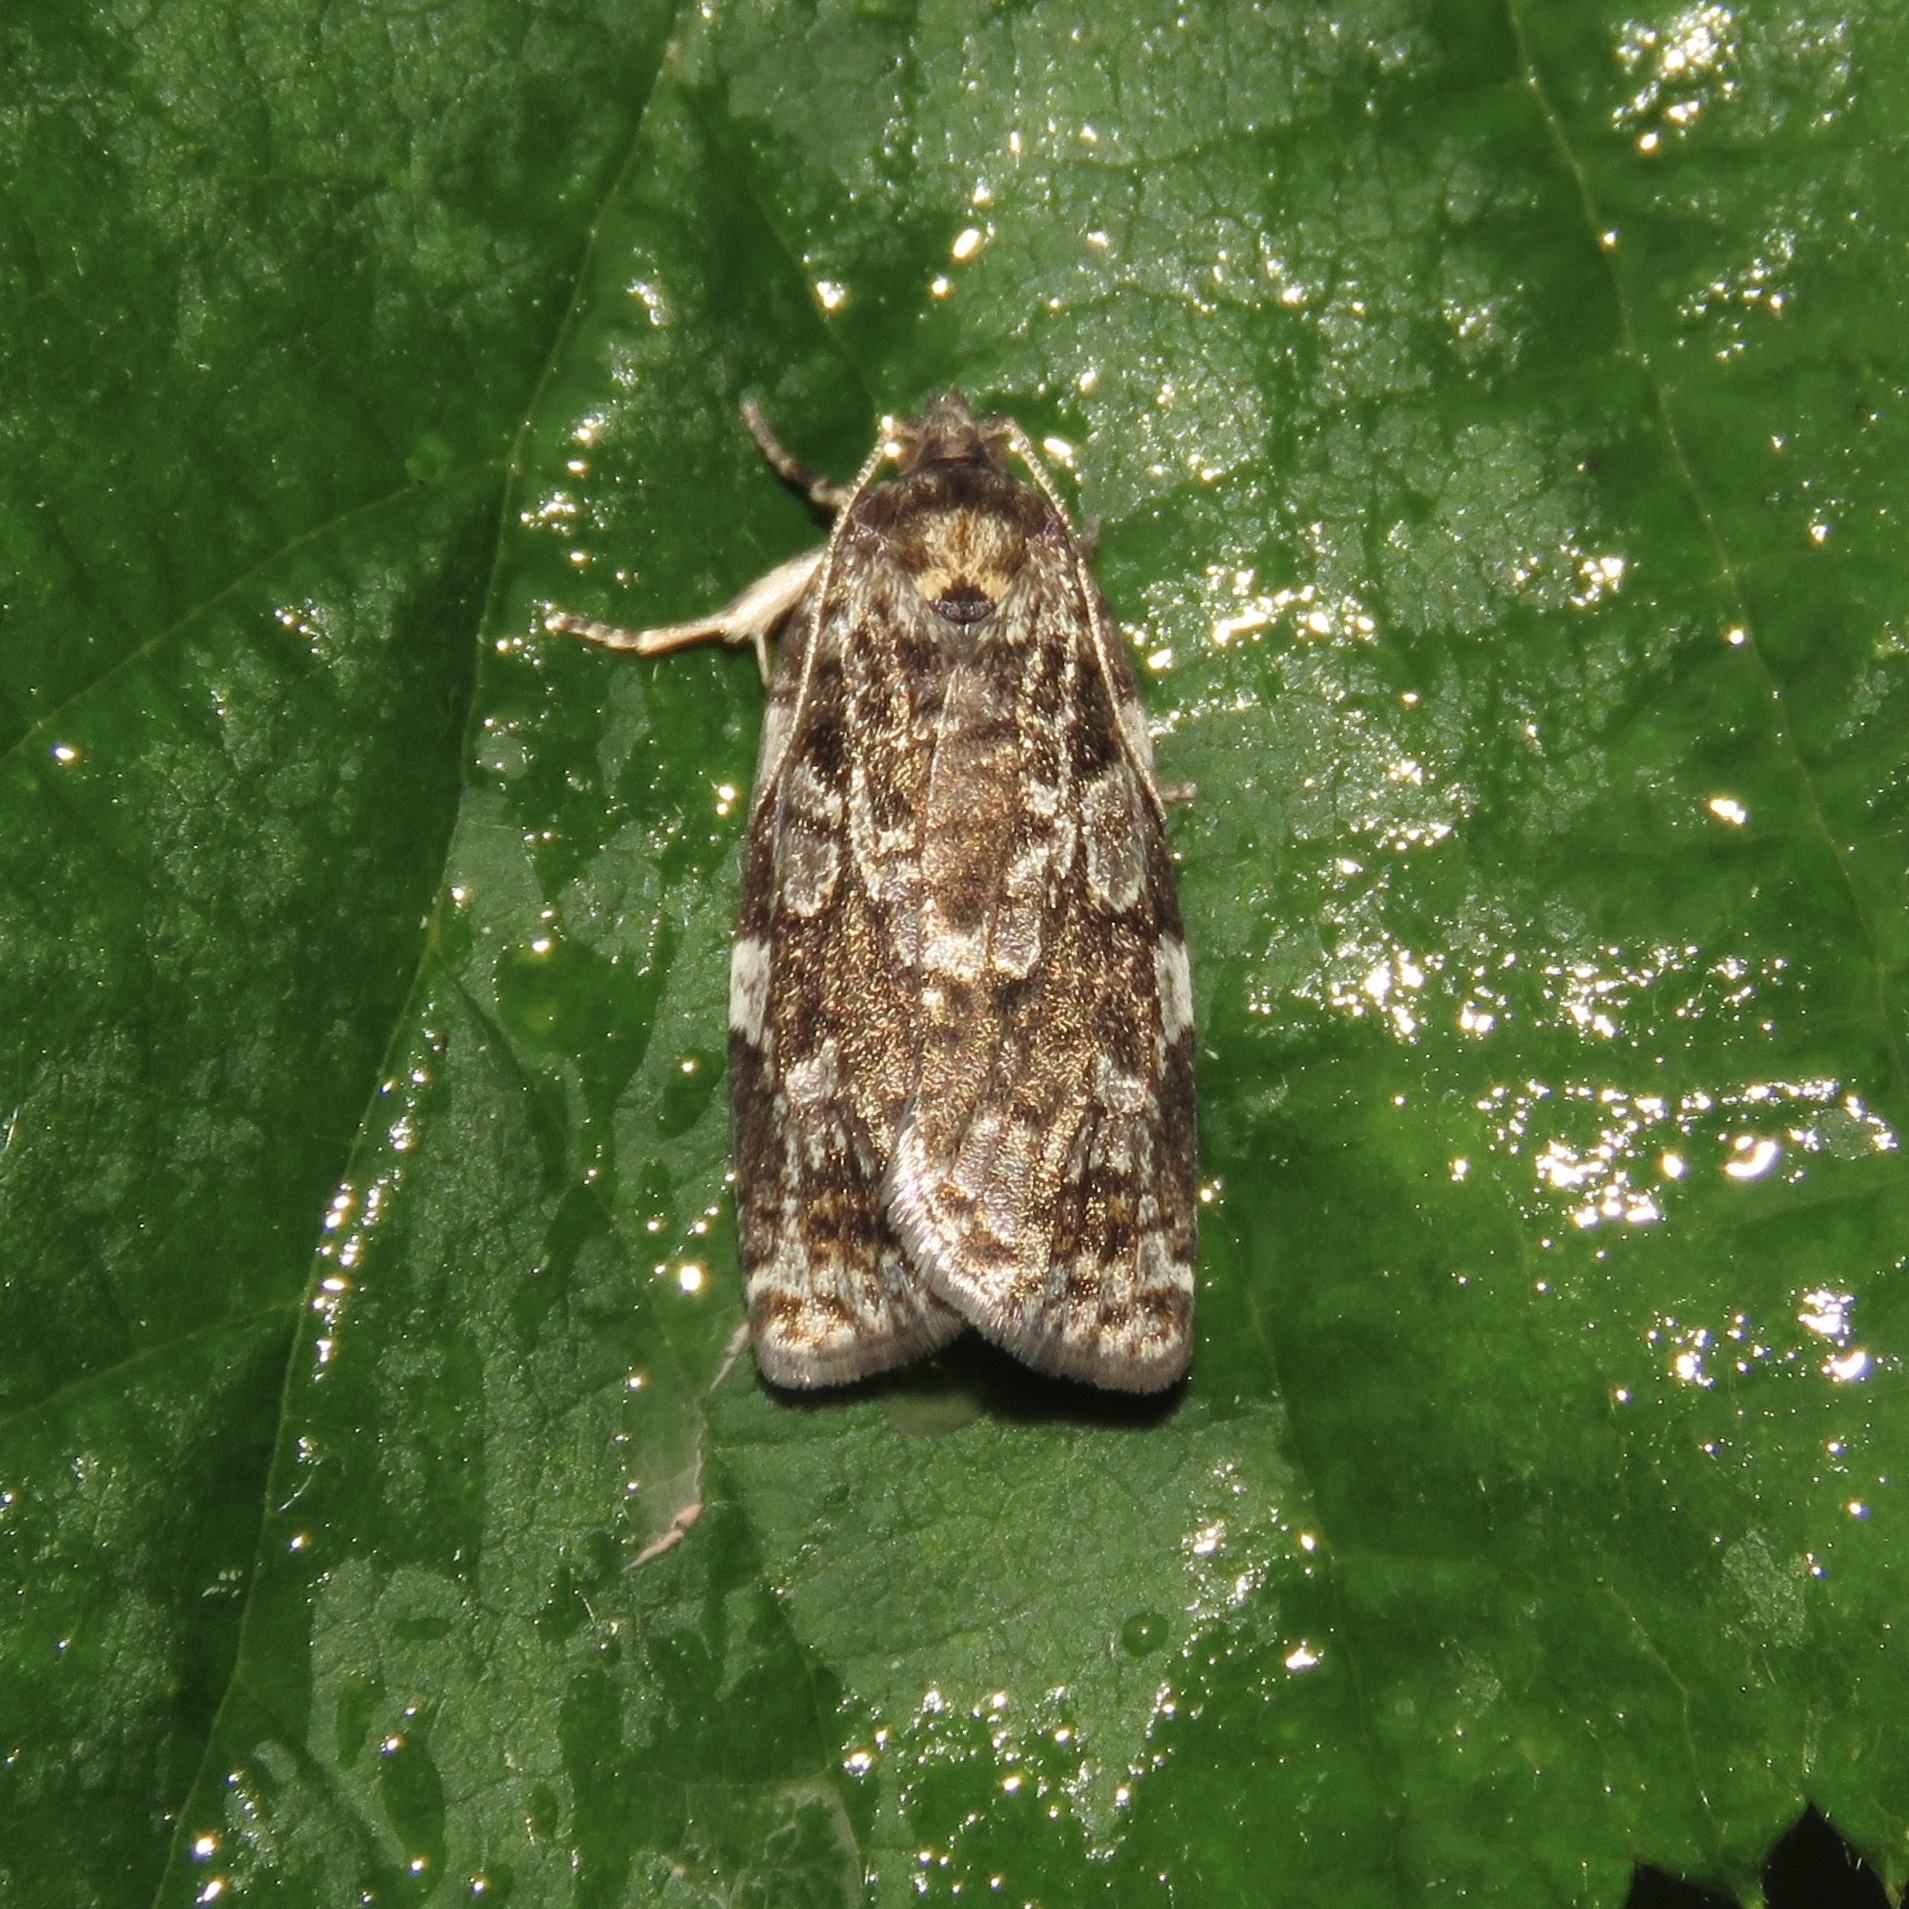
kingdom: Animalia
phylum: Arthropoda
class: Insecta
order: Lepidoptera
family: Tortricidae
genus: Choristoneura
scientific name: Choristoneura fumiferana
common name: Spruce budworm
